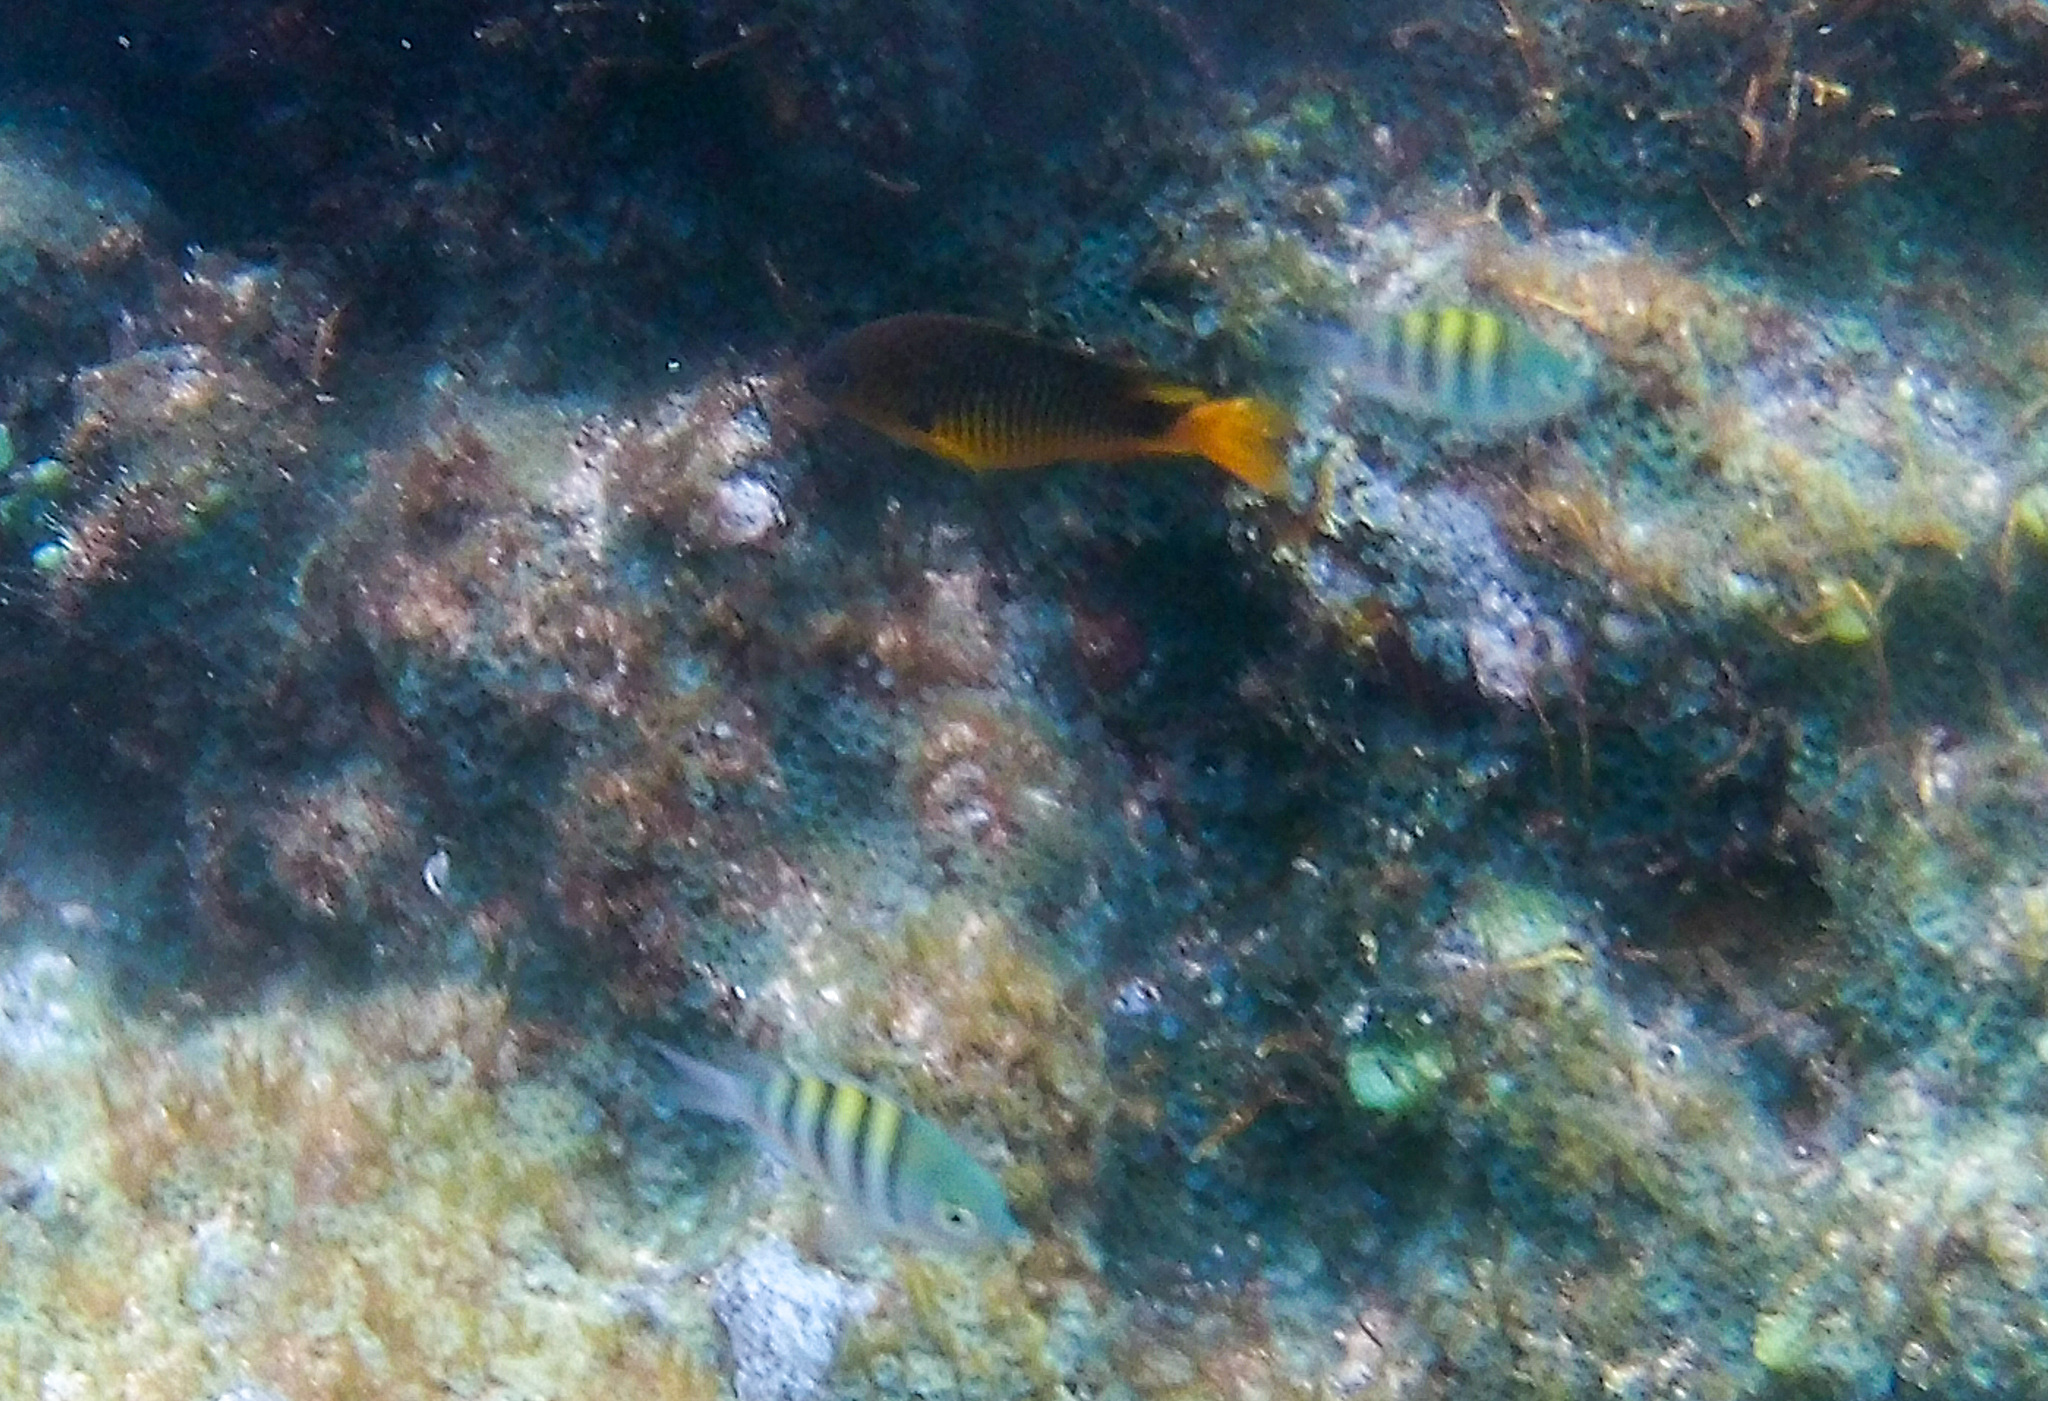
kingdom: Animalia
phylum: Chordata
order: Perciformes
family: Pomacentridae
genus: Stegastes
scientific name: Stegastes rocasensis
